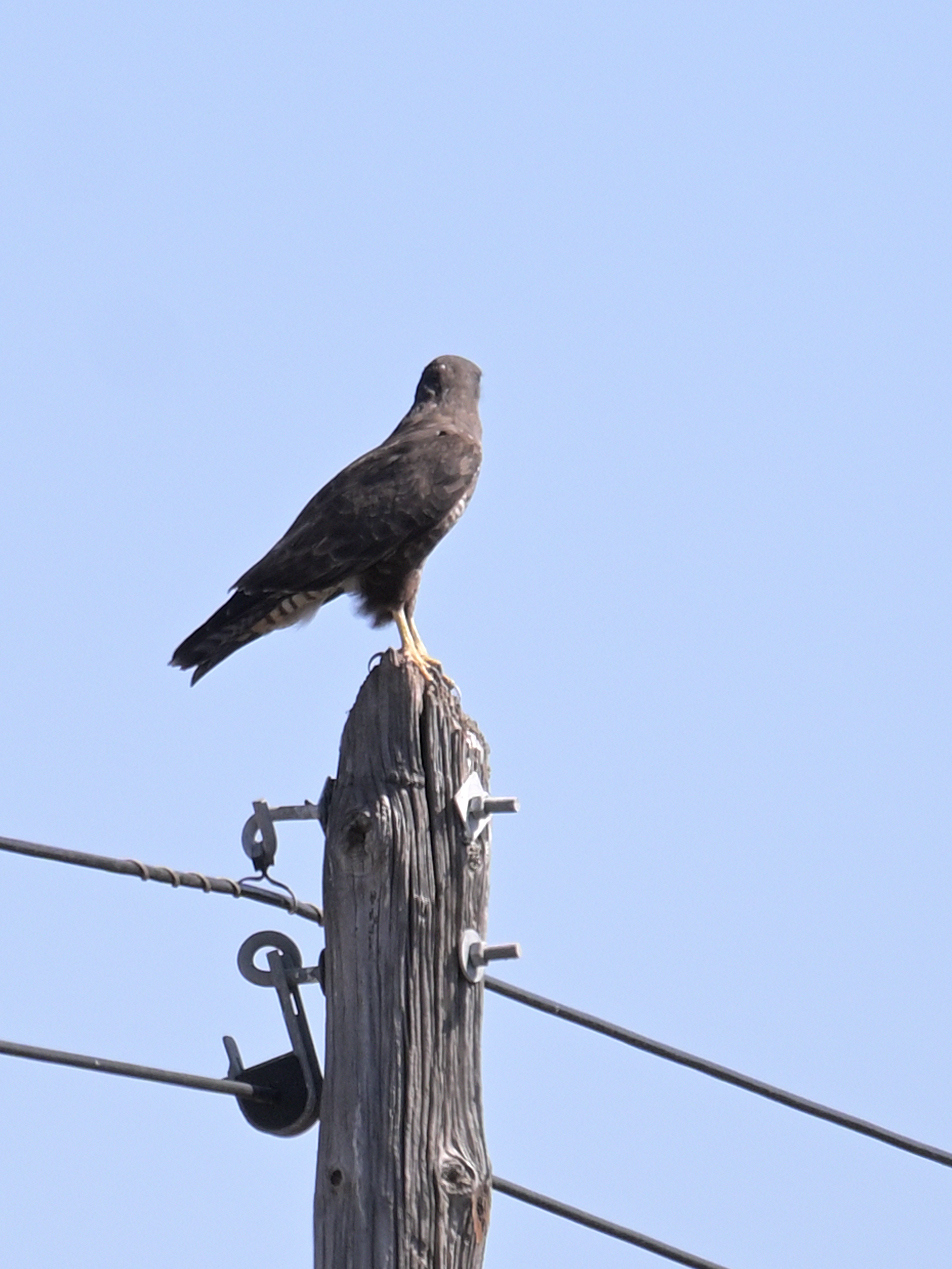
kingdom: Animalia
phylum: Chordata
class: Aves
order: Accipitriformes
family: Accipitridae
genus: Buteo
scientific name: Buteo buteo
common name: Common buzzard
